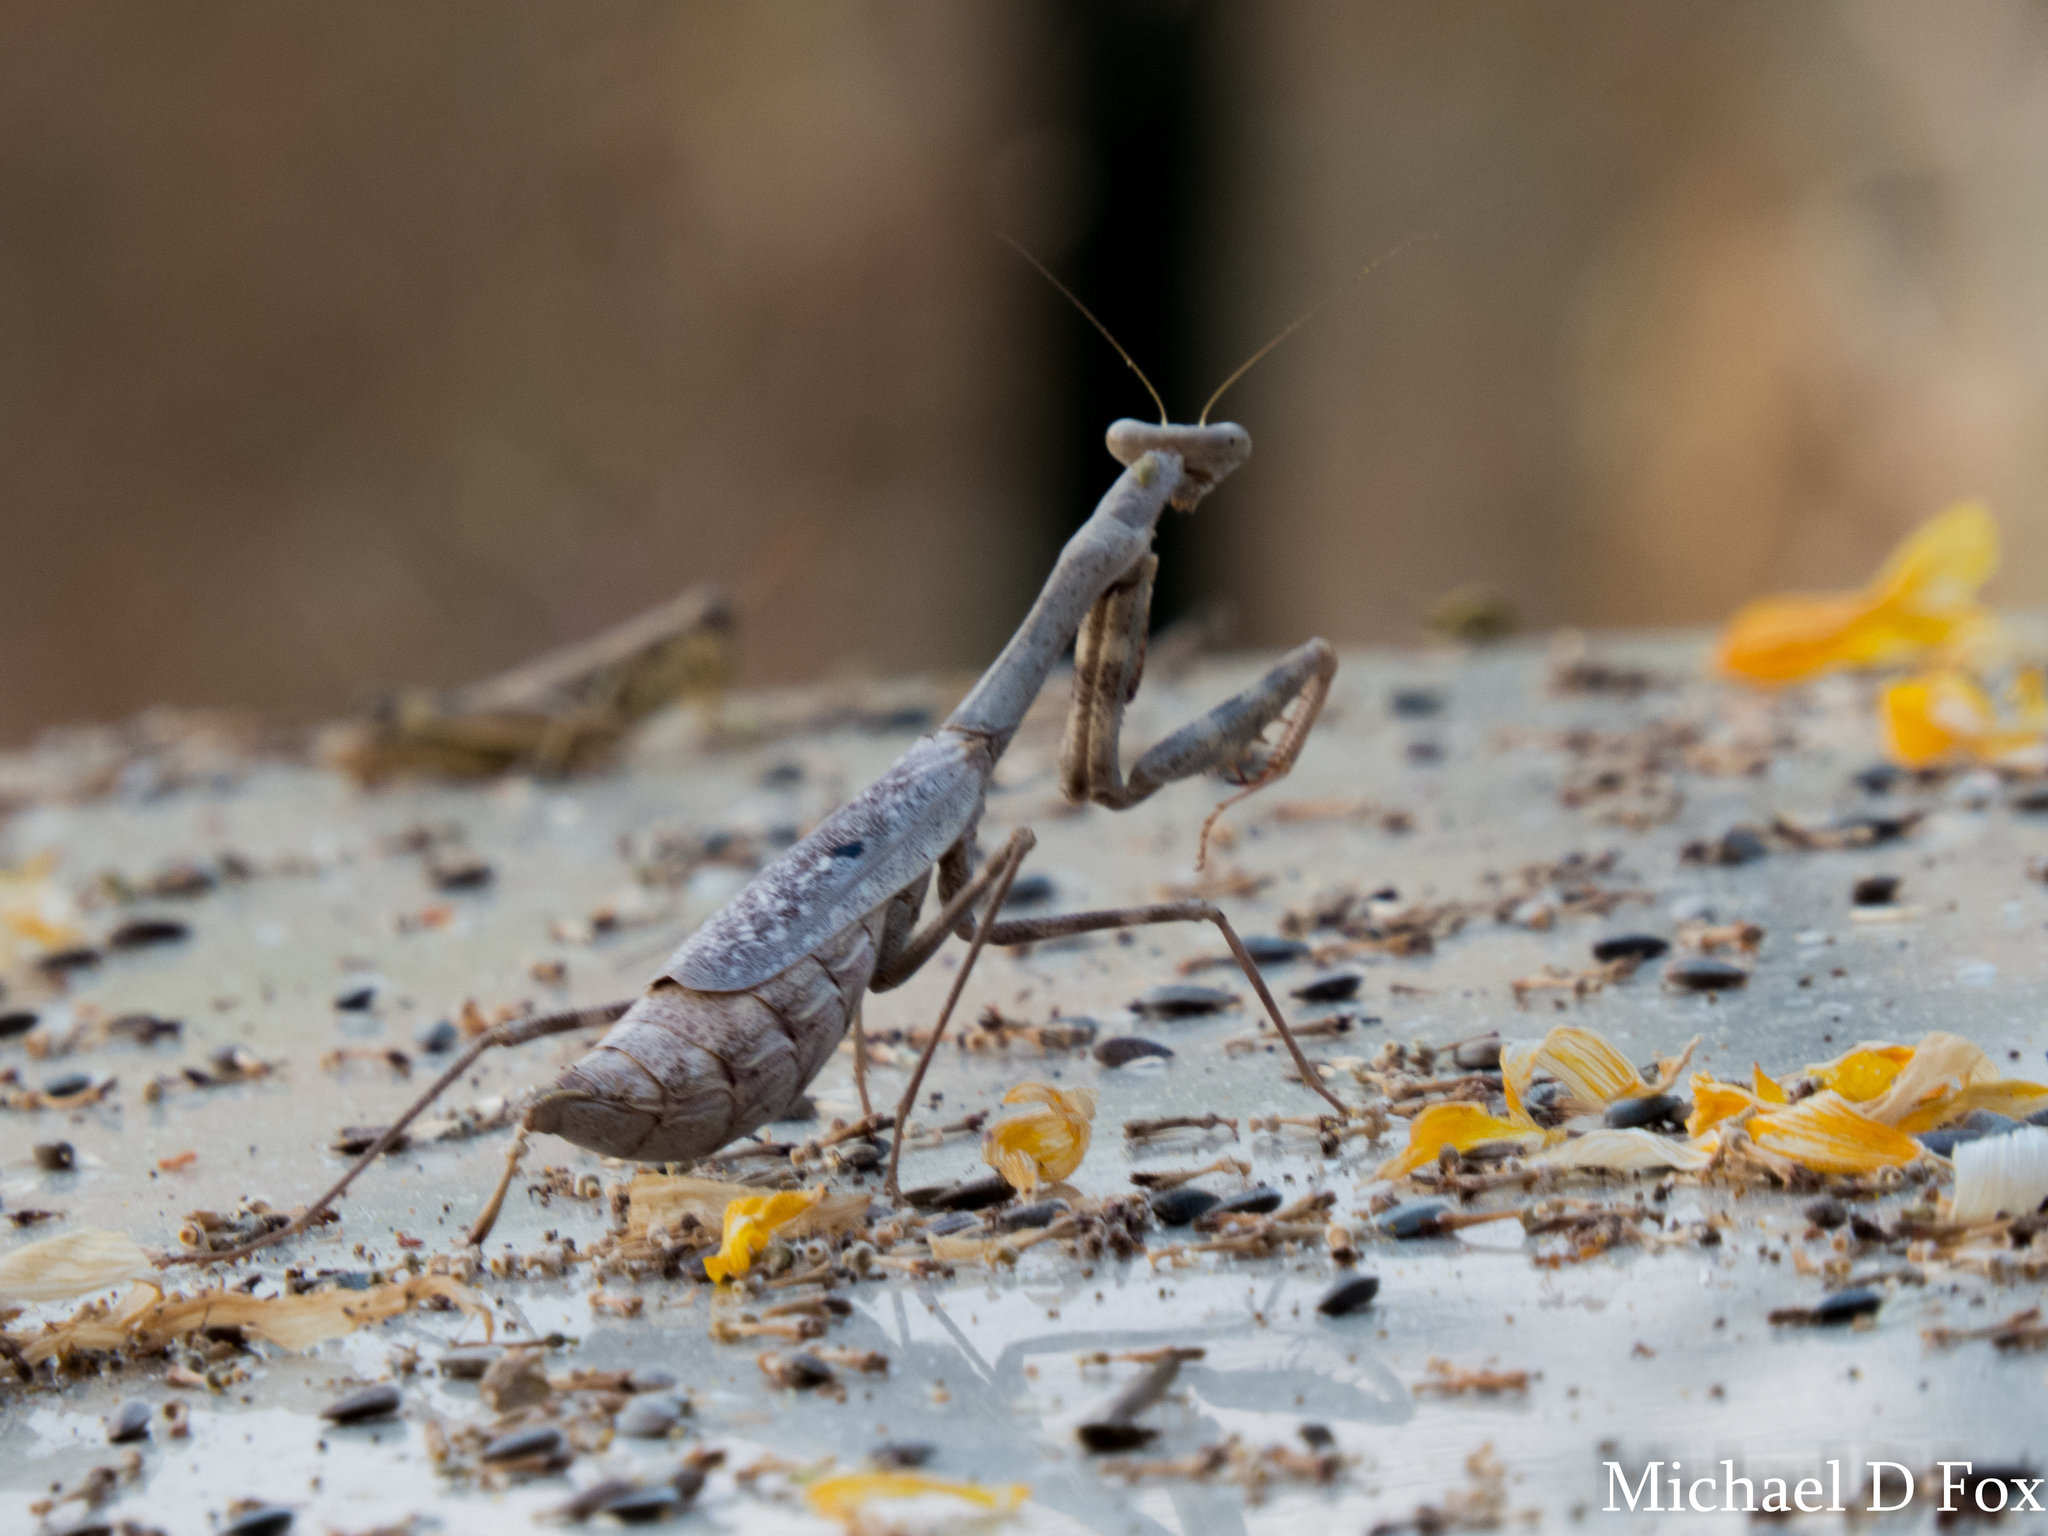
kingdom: Animalia
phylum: Arthropoda
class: Insecta
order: Mantodea
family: Mantidae
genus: Stagmomantis
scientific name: Stagmomantis carolina
